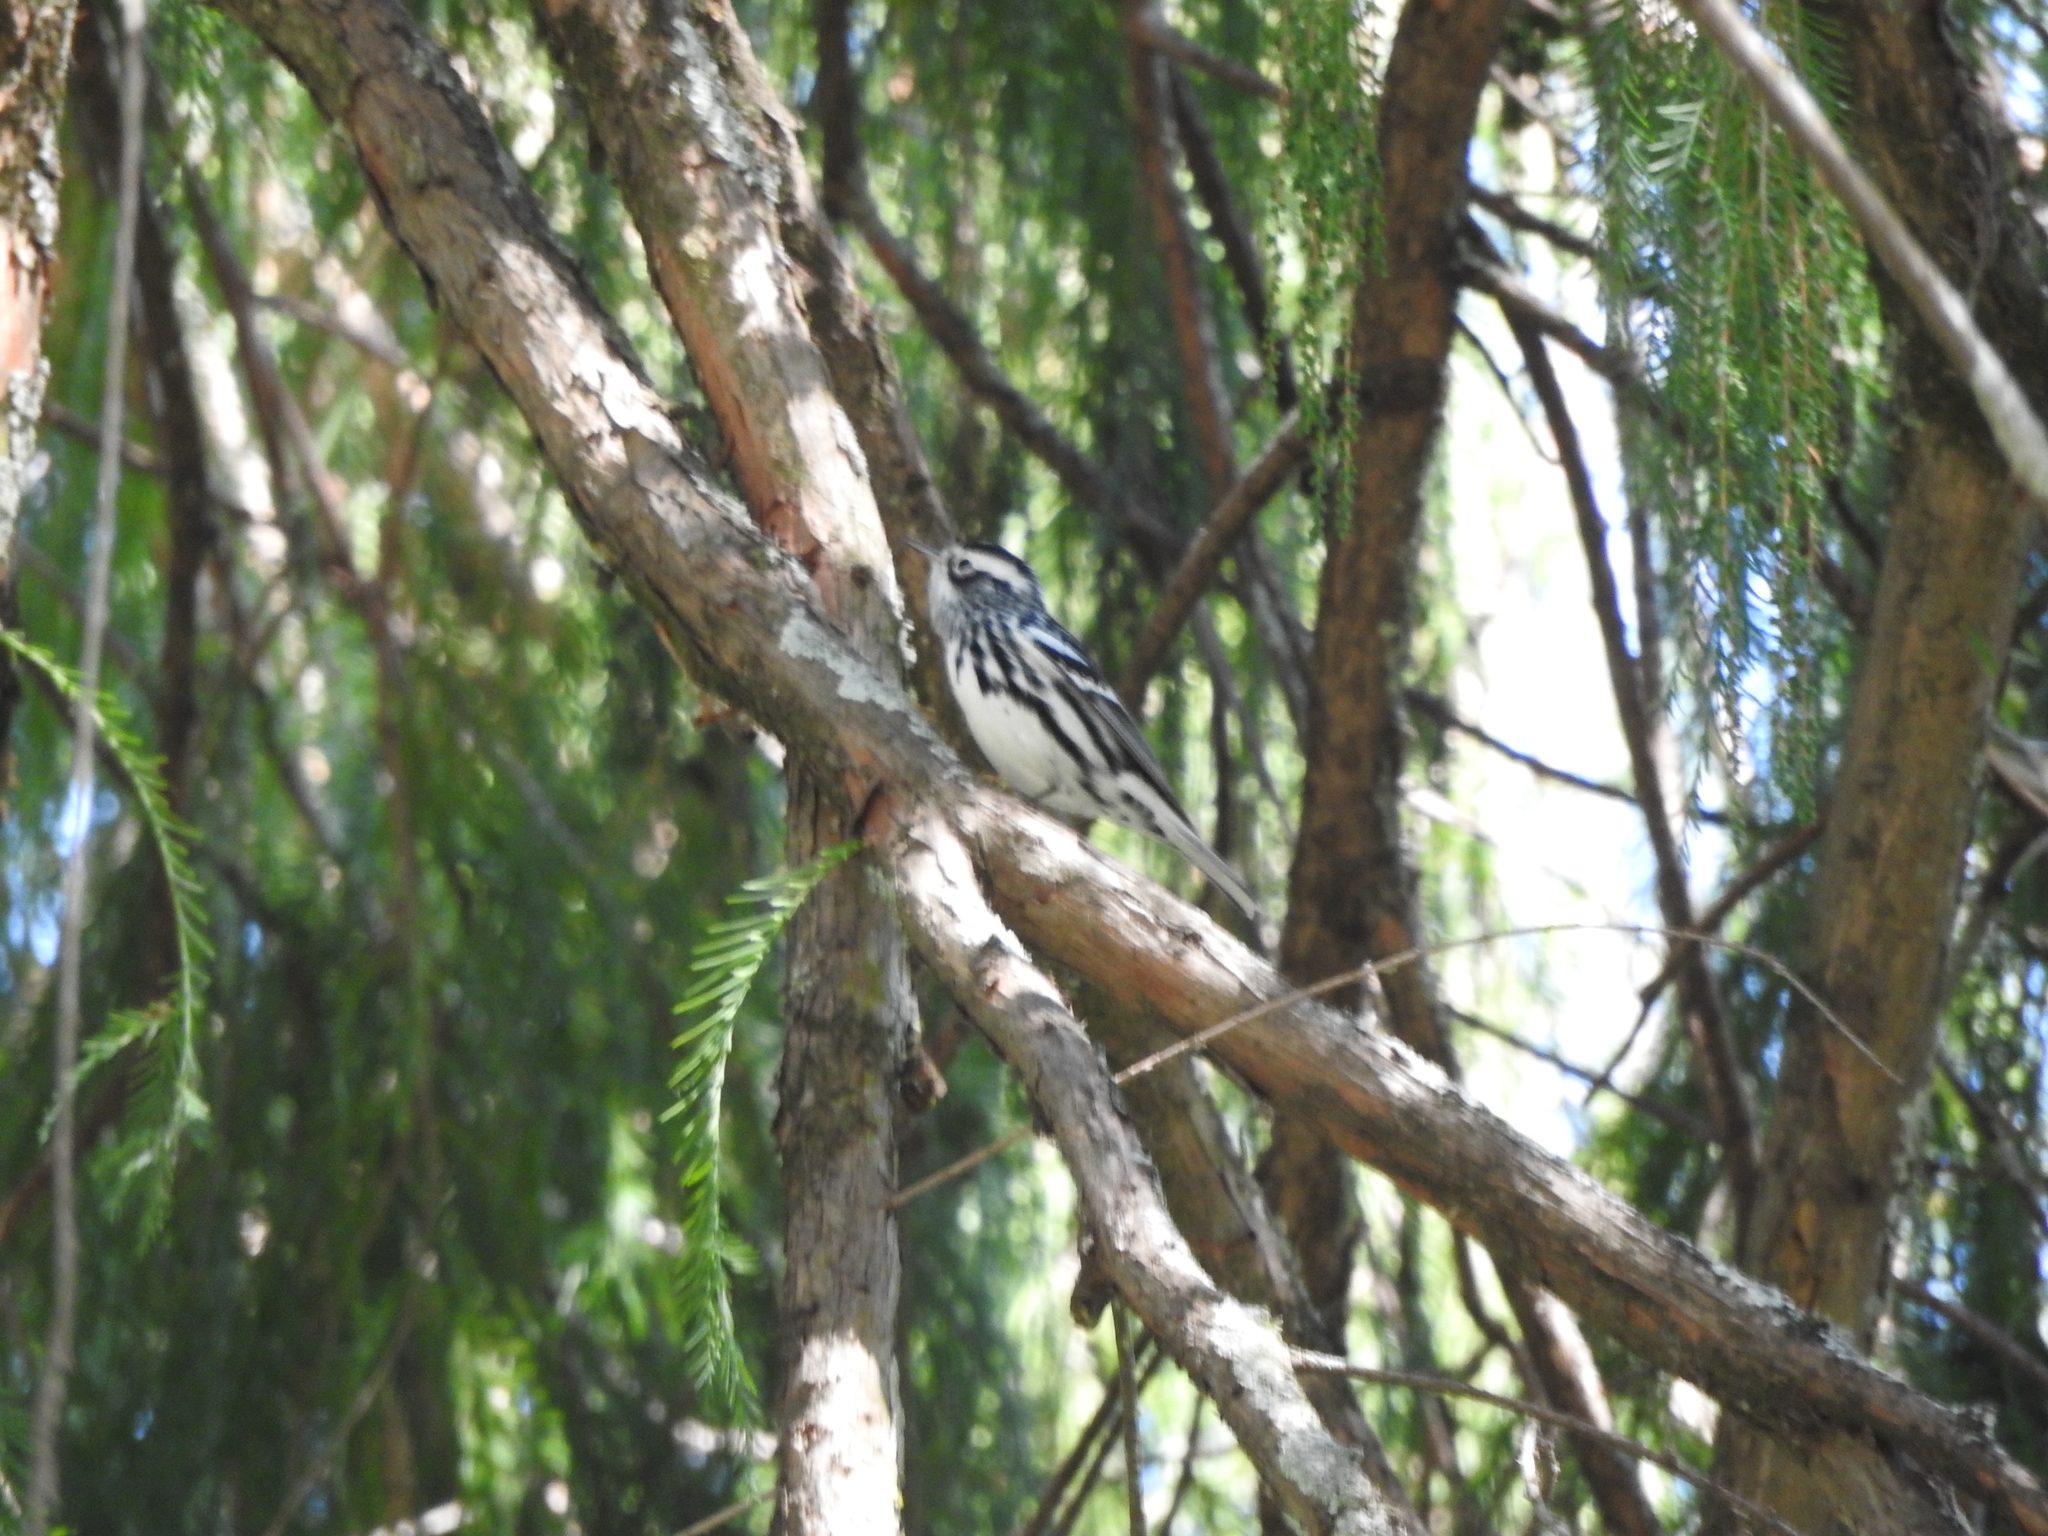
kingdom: Animalia
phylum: Chordata
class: Aves
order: Passeriformes
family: Parulidae
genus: Mniotilta
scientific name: Mniotilta varia
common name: Black-and-white warbler
